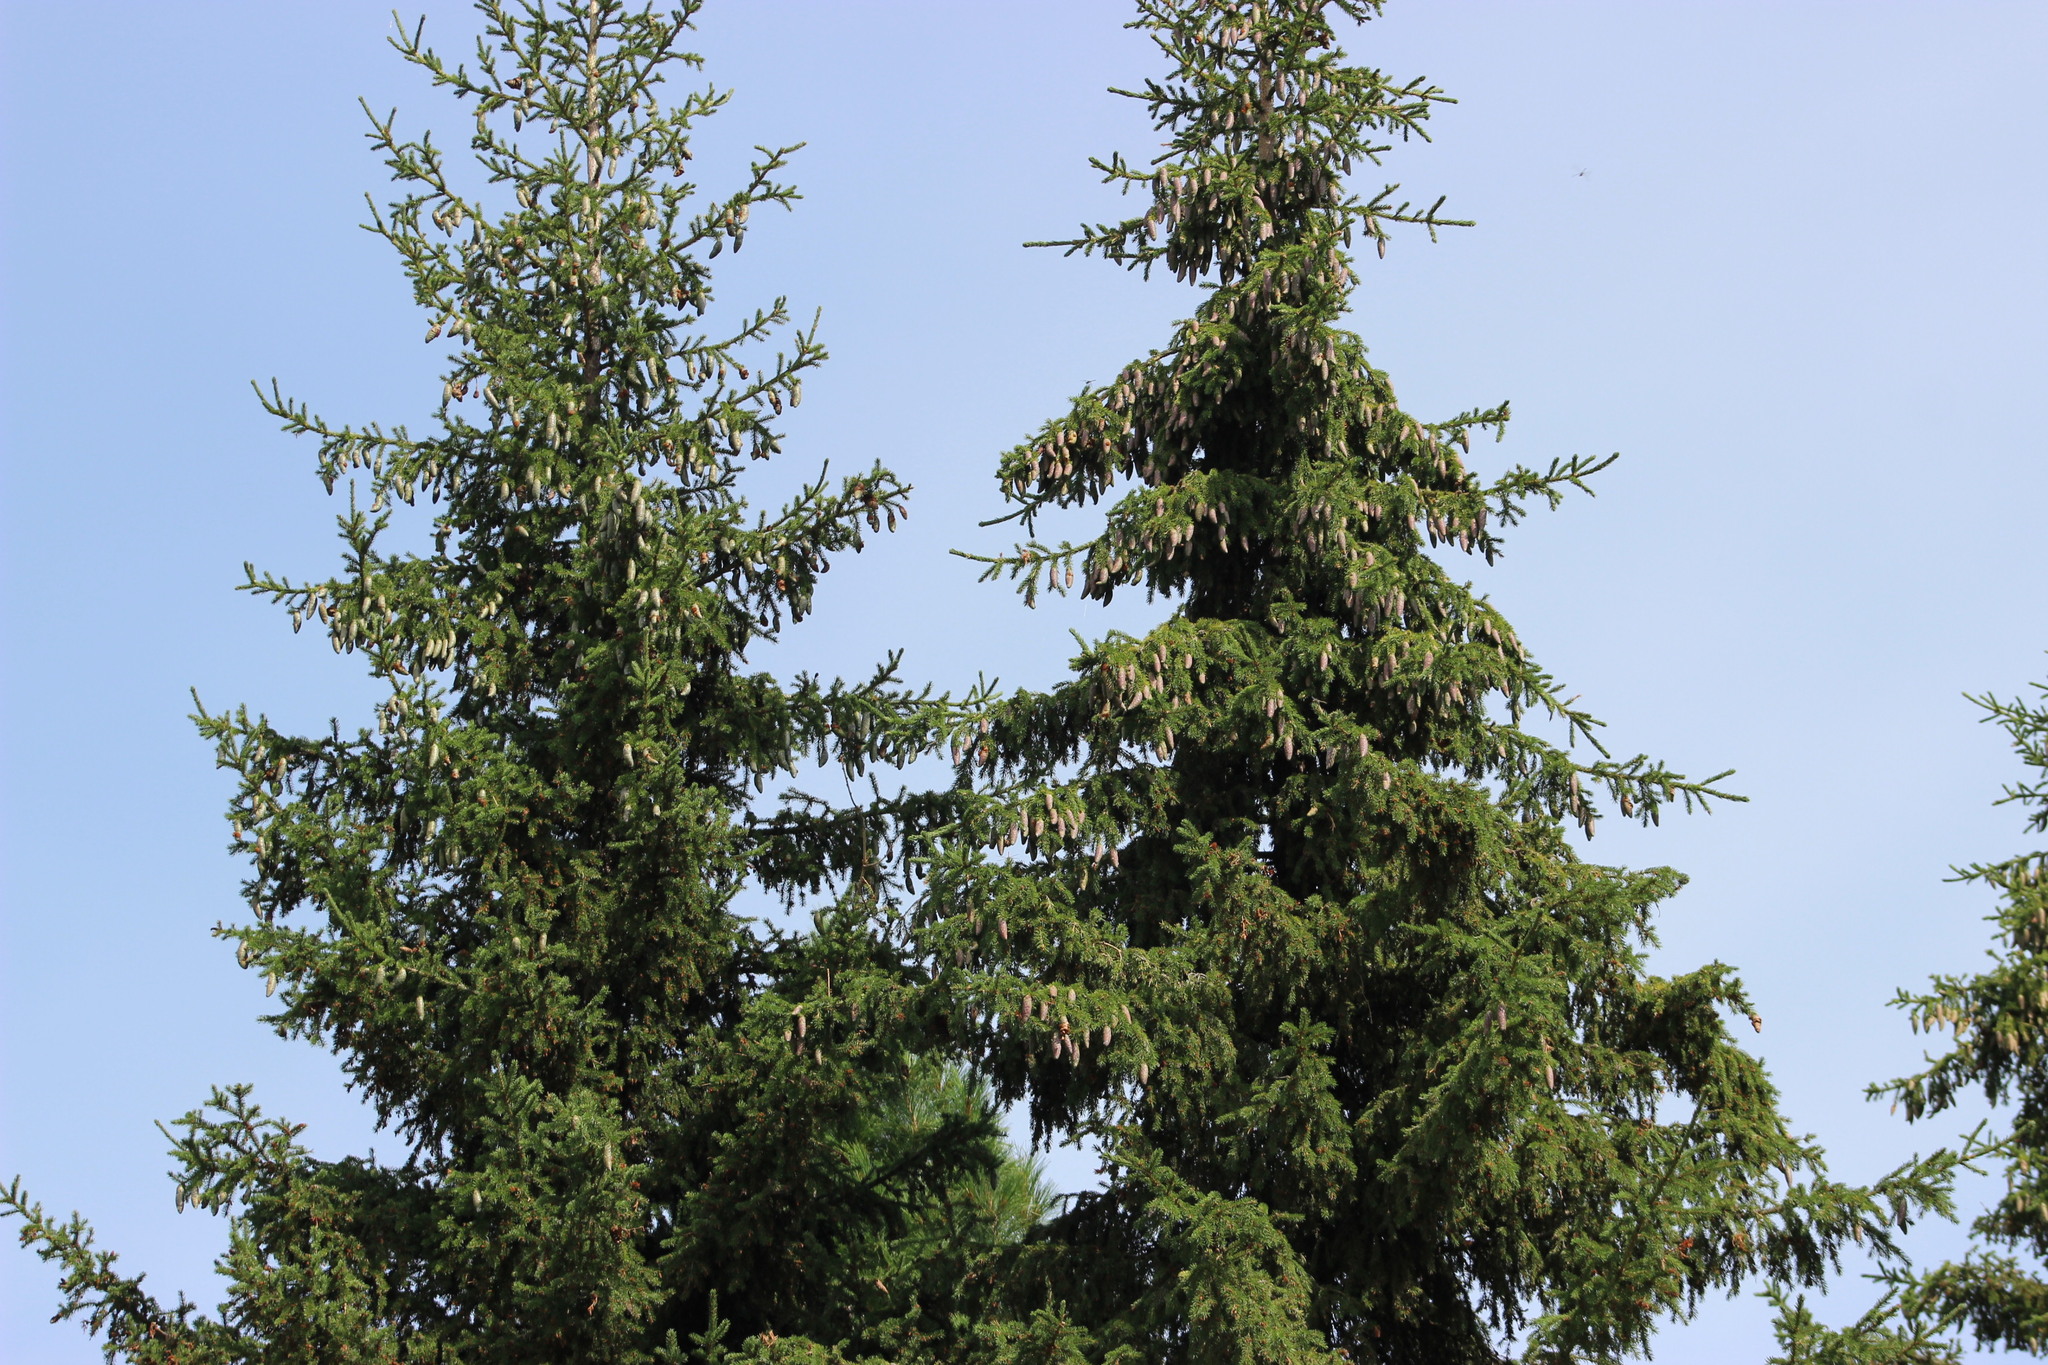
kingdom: Plantae
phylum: Tracheophyta
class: Pinopsida
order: Pinales
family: Pinaceae
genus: Picea
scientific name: Picea obovata
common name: Siberian spruce
